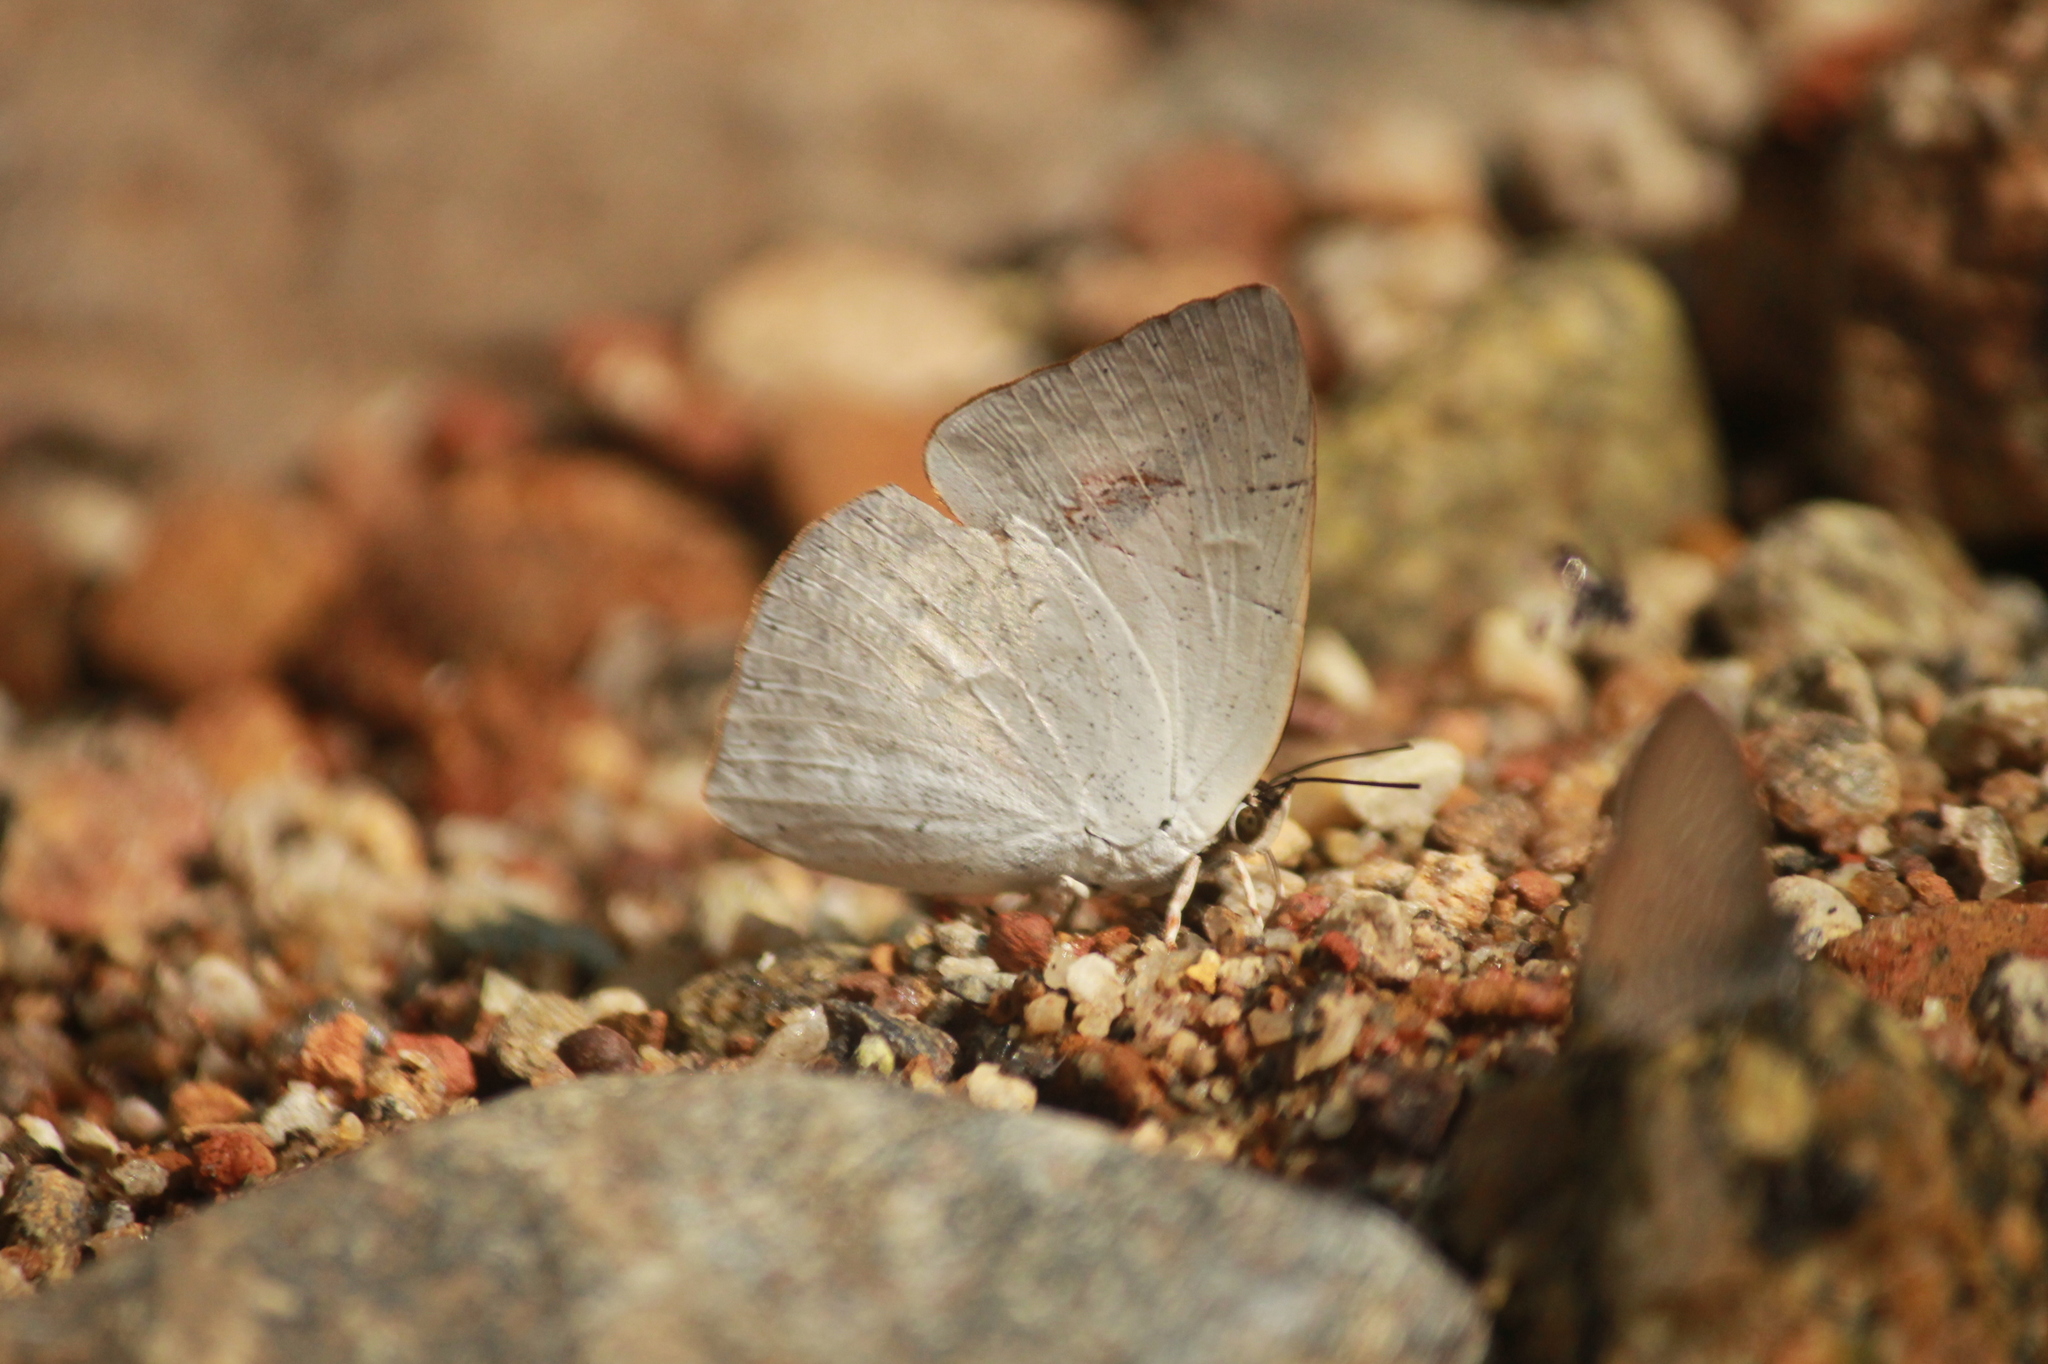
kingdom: Animalia
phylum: Arthropoda
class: Insecta
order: Lepidoptera
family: Lycaenidae
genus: Curetis
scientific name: Curetis siva
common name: Shiva sunbeam
